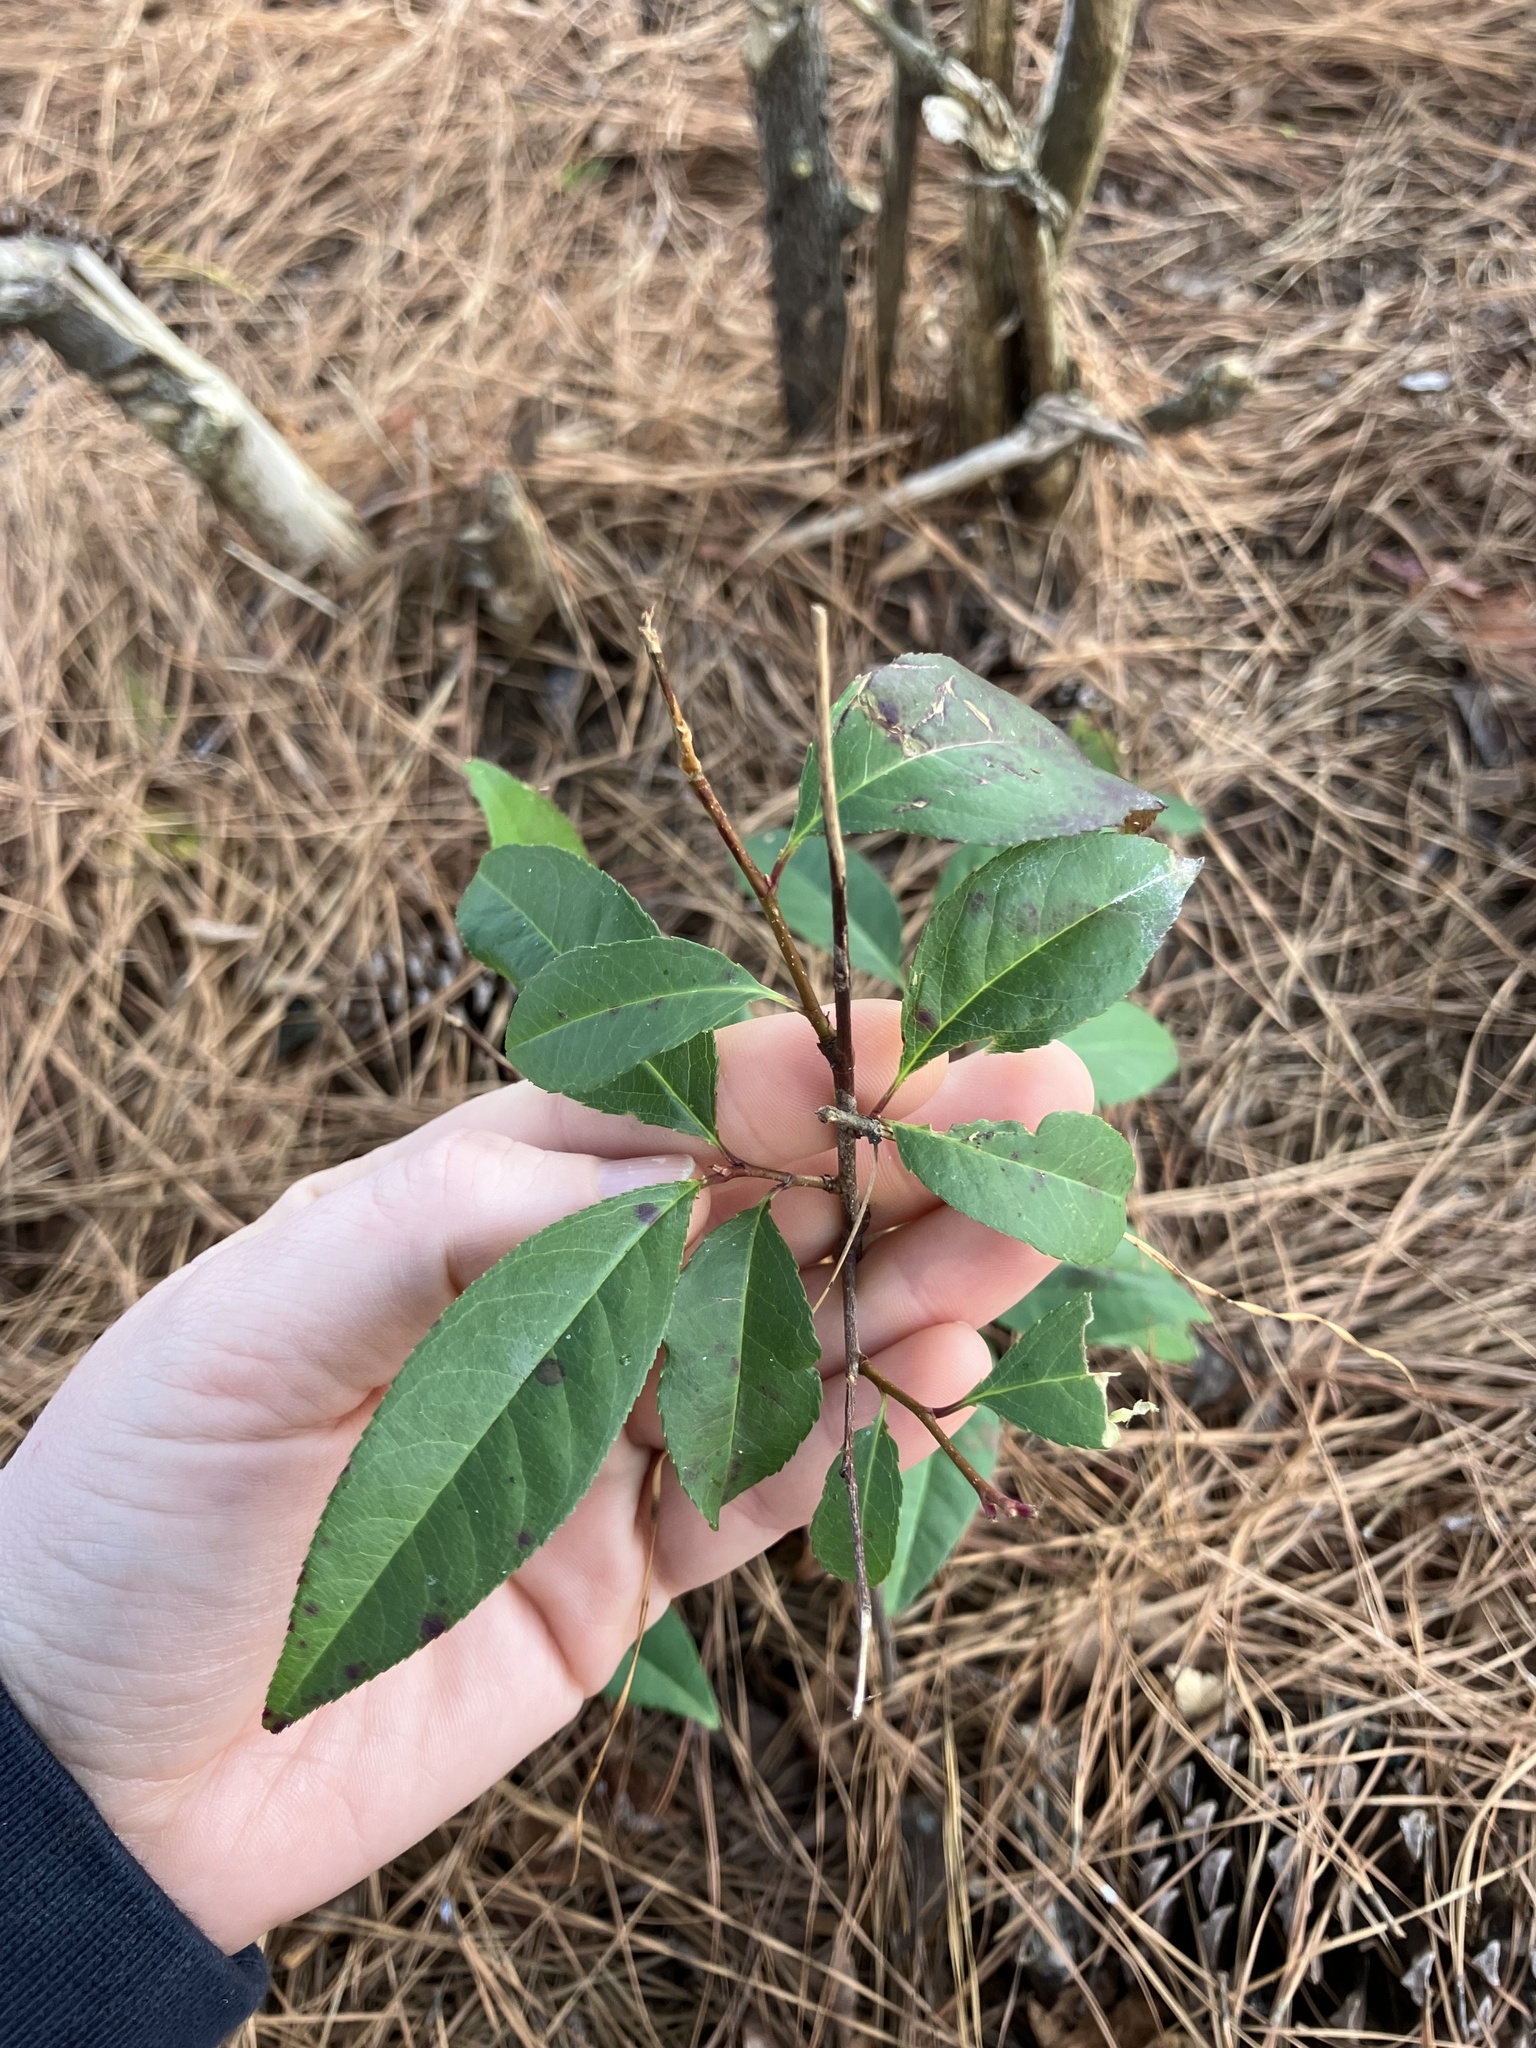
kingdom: Plantae
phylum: Tracheophyta
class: Magnoliopsida
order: Rosales
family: Rosaceae
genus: Prunus
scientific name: Prunus serotina
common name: Black cherry
